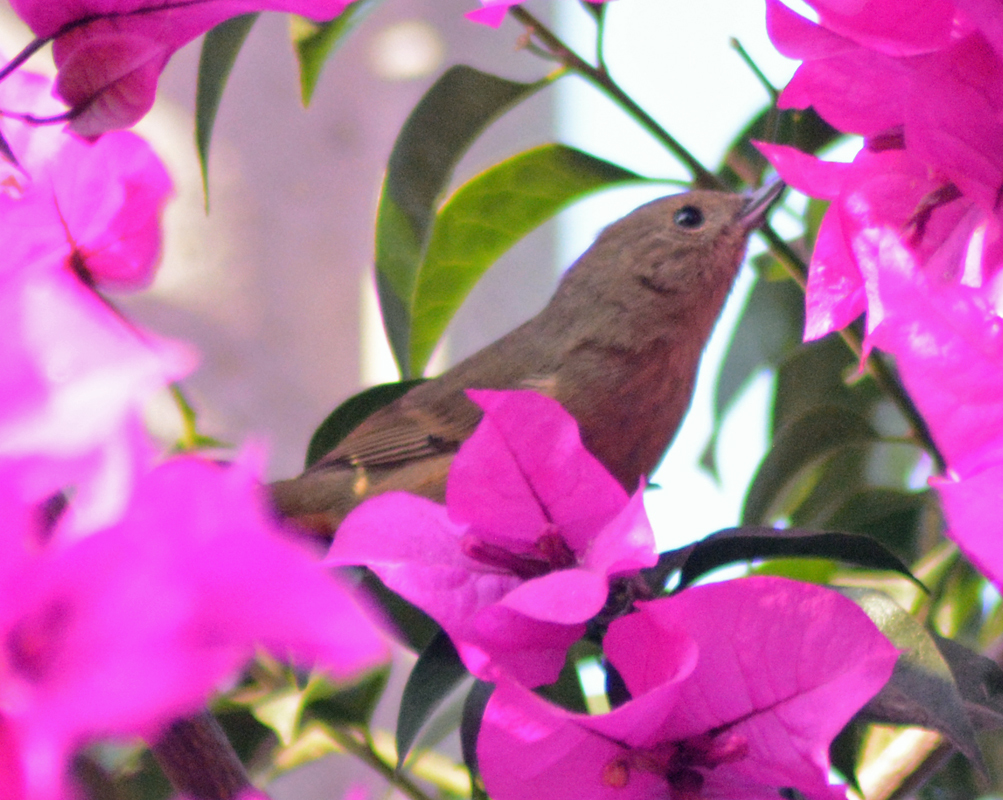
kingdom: Animalia
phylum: Chordata
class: Aves
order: Passeriformes
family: Thraupidae
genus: Diglossa
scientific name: Diglossa baritula
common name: Cinnamon-bellied flowerpiercer
